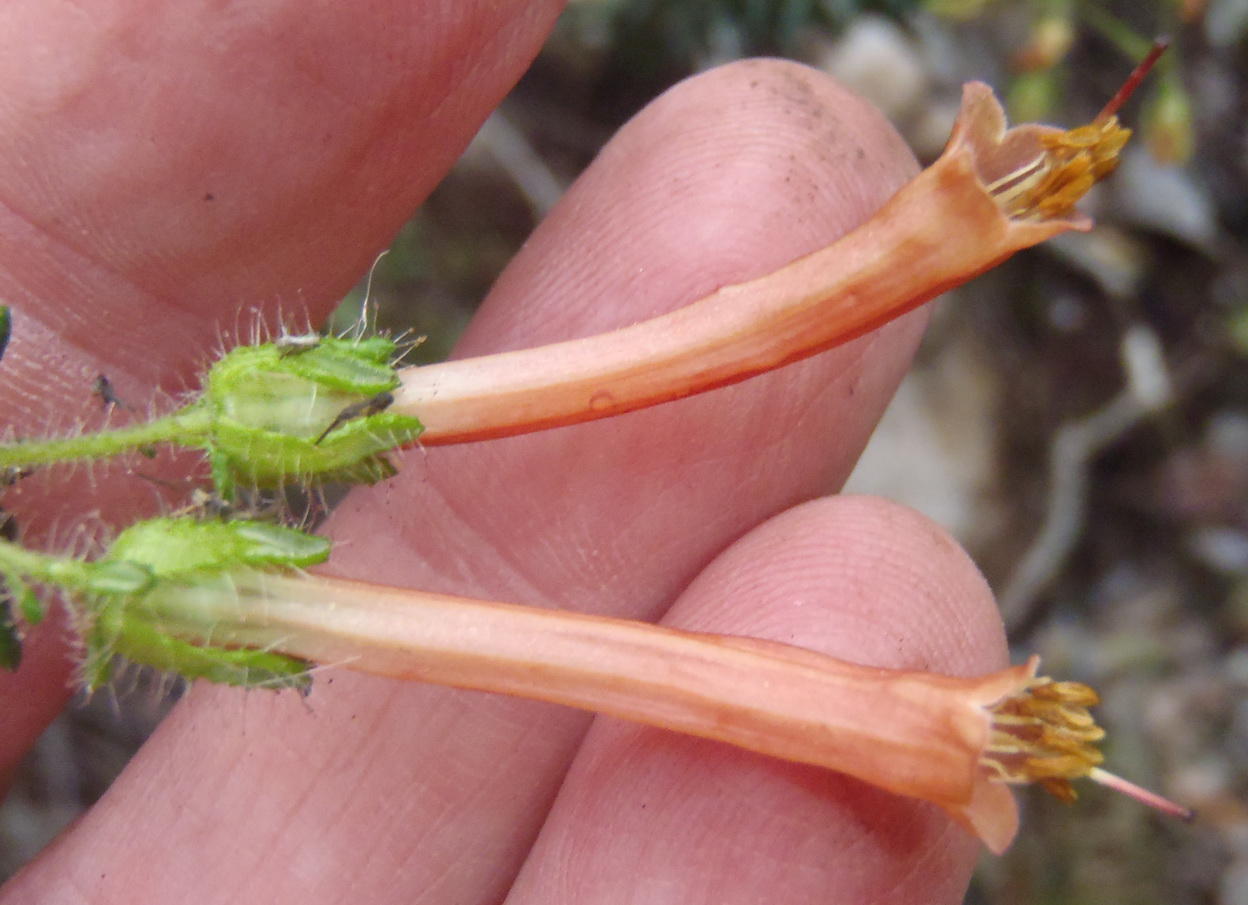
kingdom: Plantae
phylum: Tracheophyta
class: Magnoliopsida
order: Ericales
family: Ericaceae
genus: Erica
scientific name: Erica glandulosa
